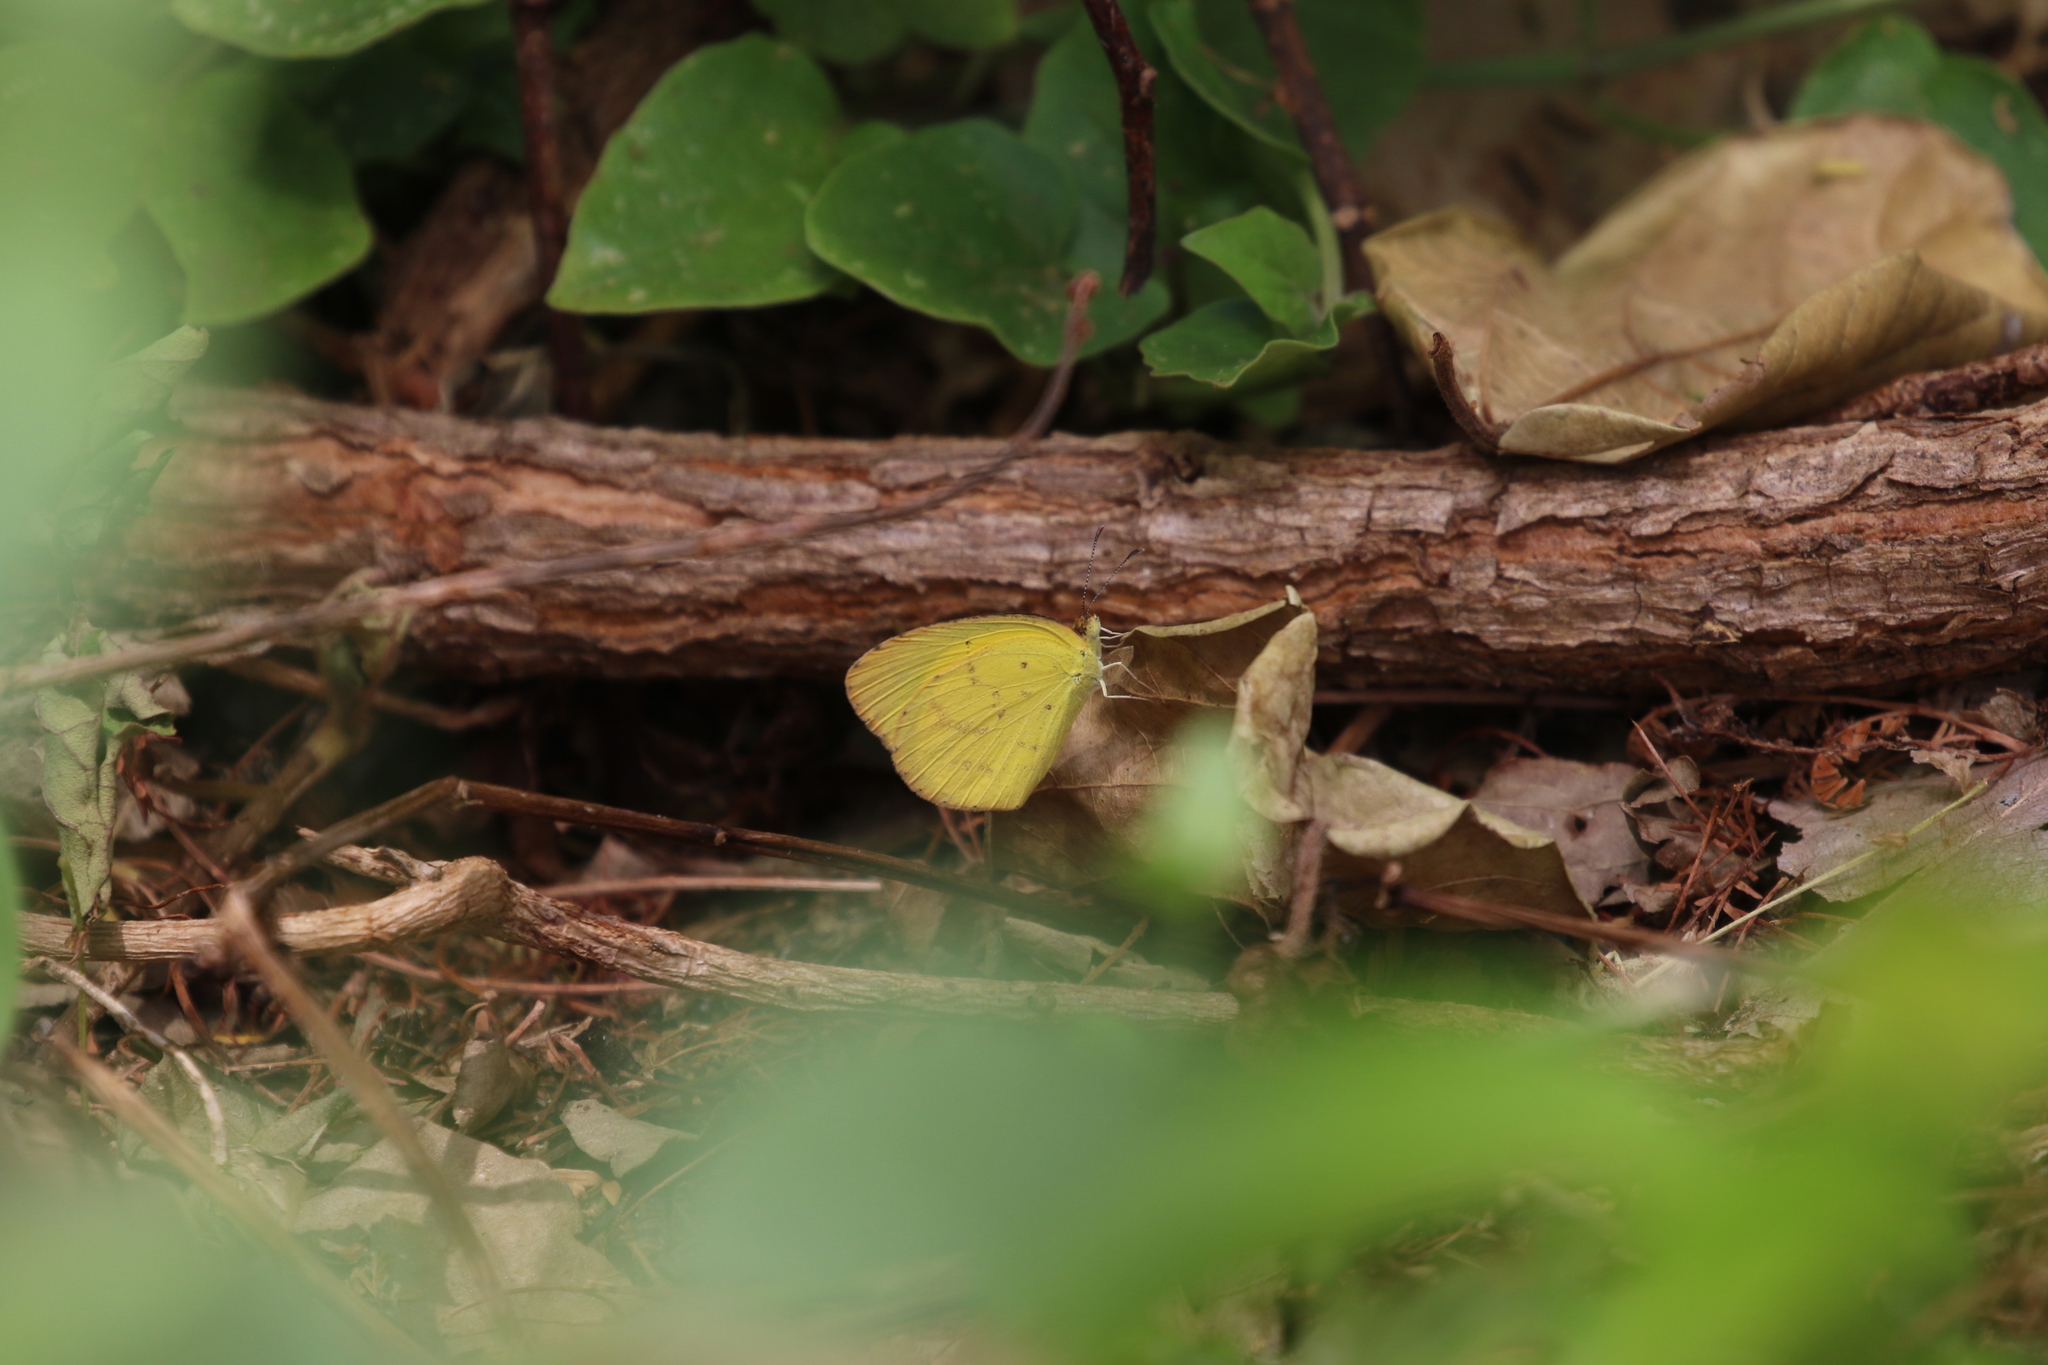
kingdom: Animalia
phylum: Arthropoda
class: Insecta
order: Lepidoptera
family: Pieridae
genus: Eurema
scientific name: Eurema brigitta
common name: Small grass yellow
